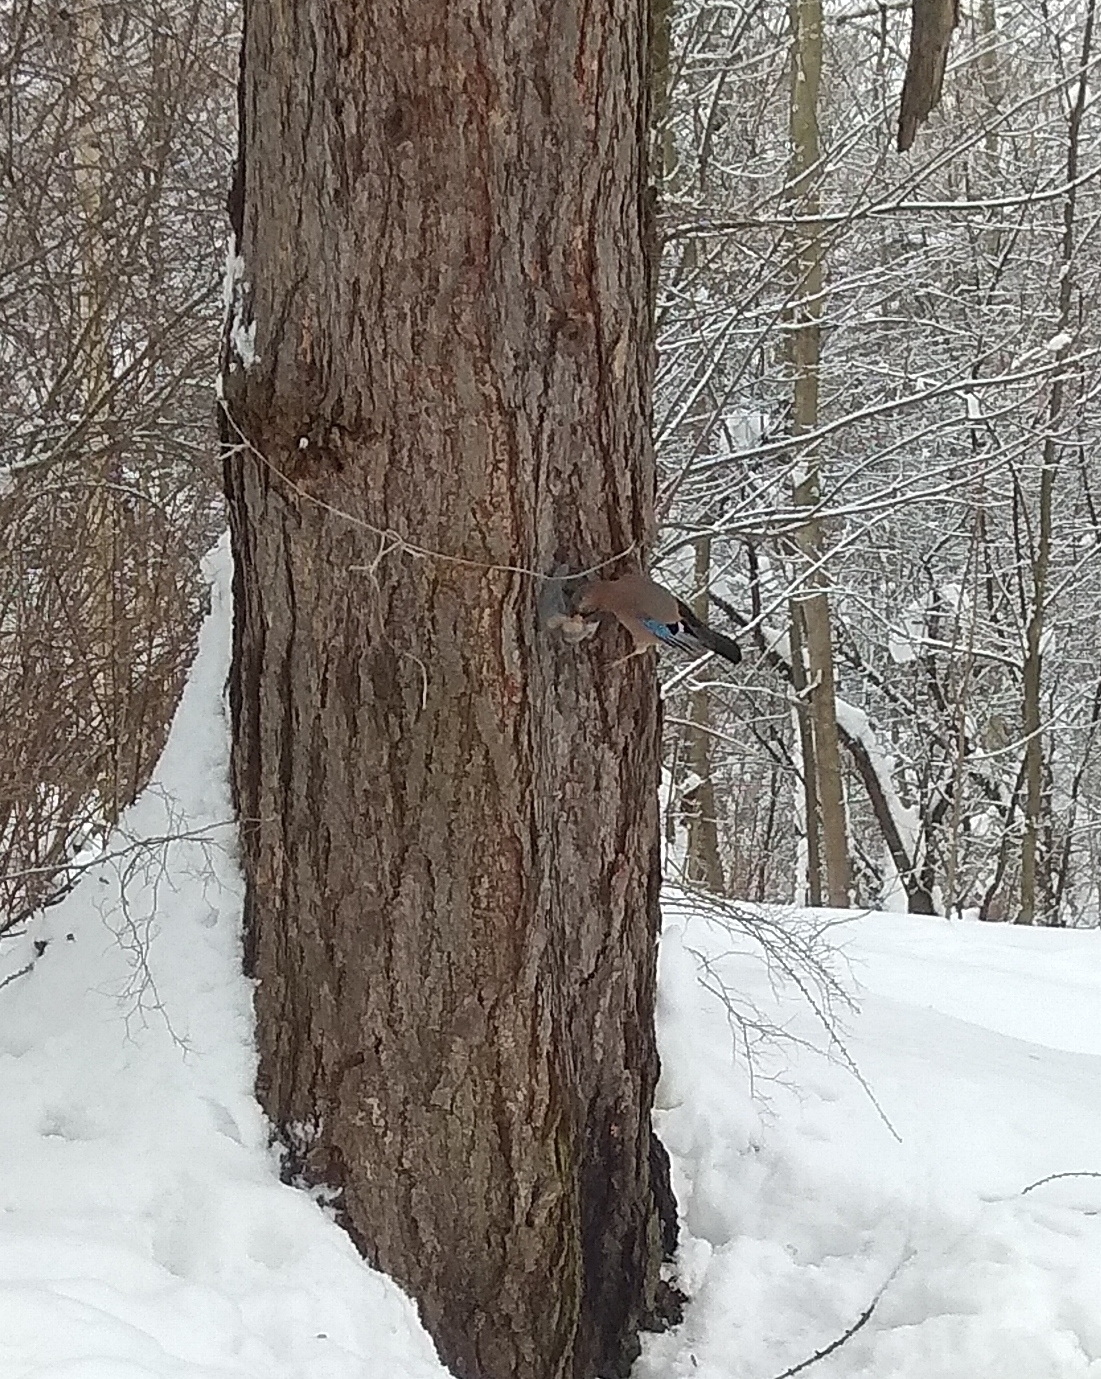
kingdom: Animalia
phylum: Chordata
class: Aves
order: Passeriformes
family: Corvidae
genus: Garrulus
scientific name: Garrulus glandarius
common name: Eurasian jay
